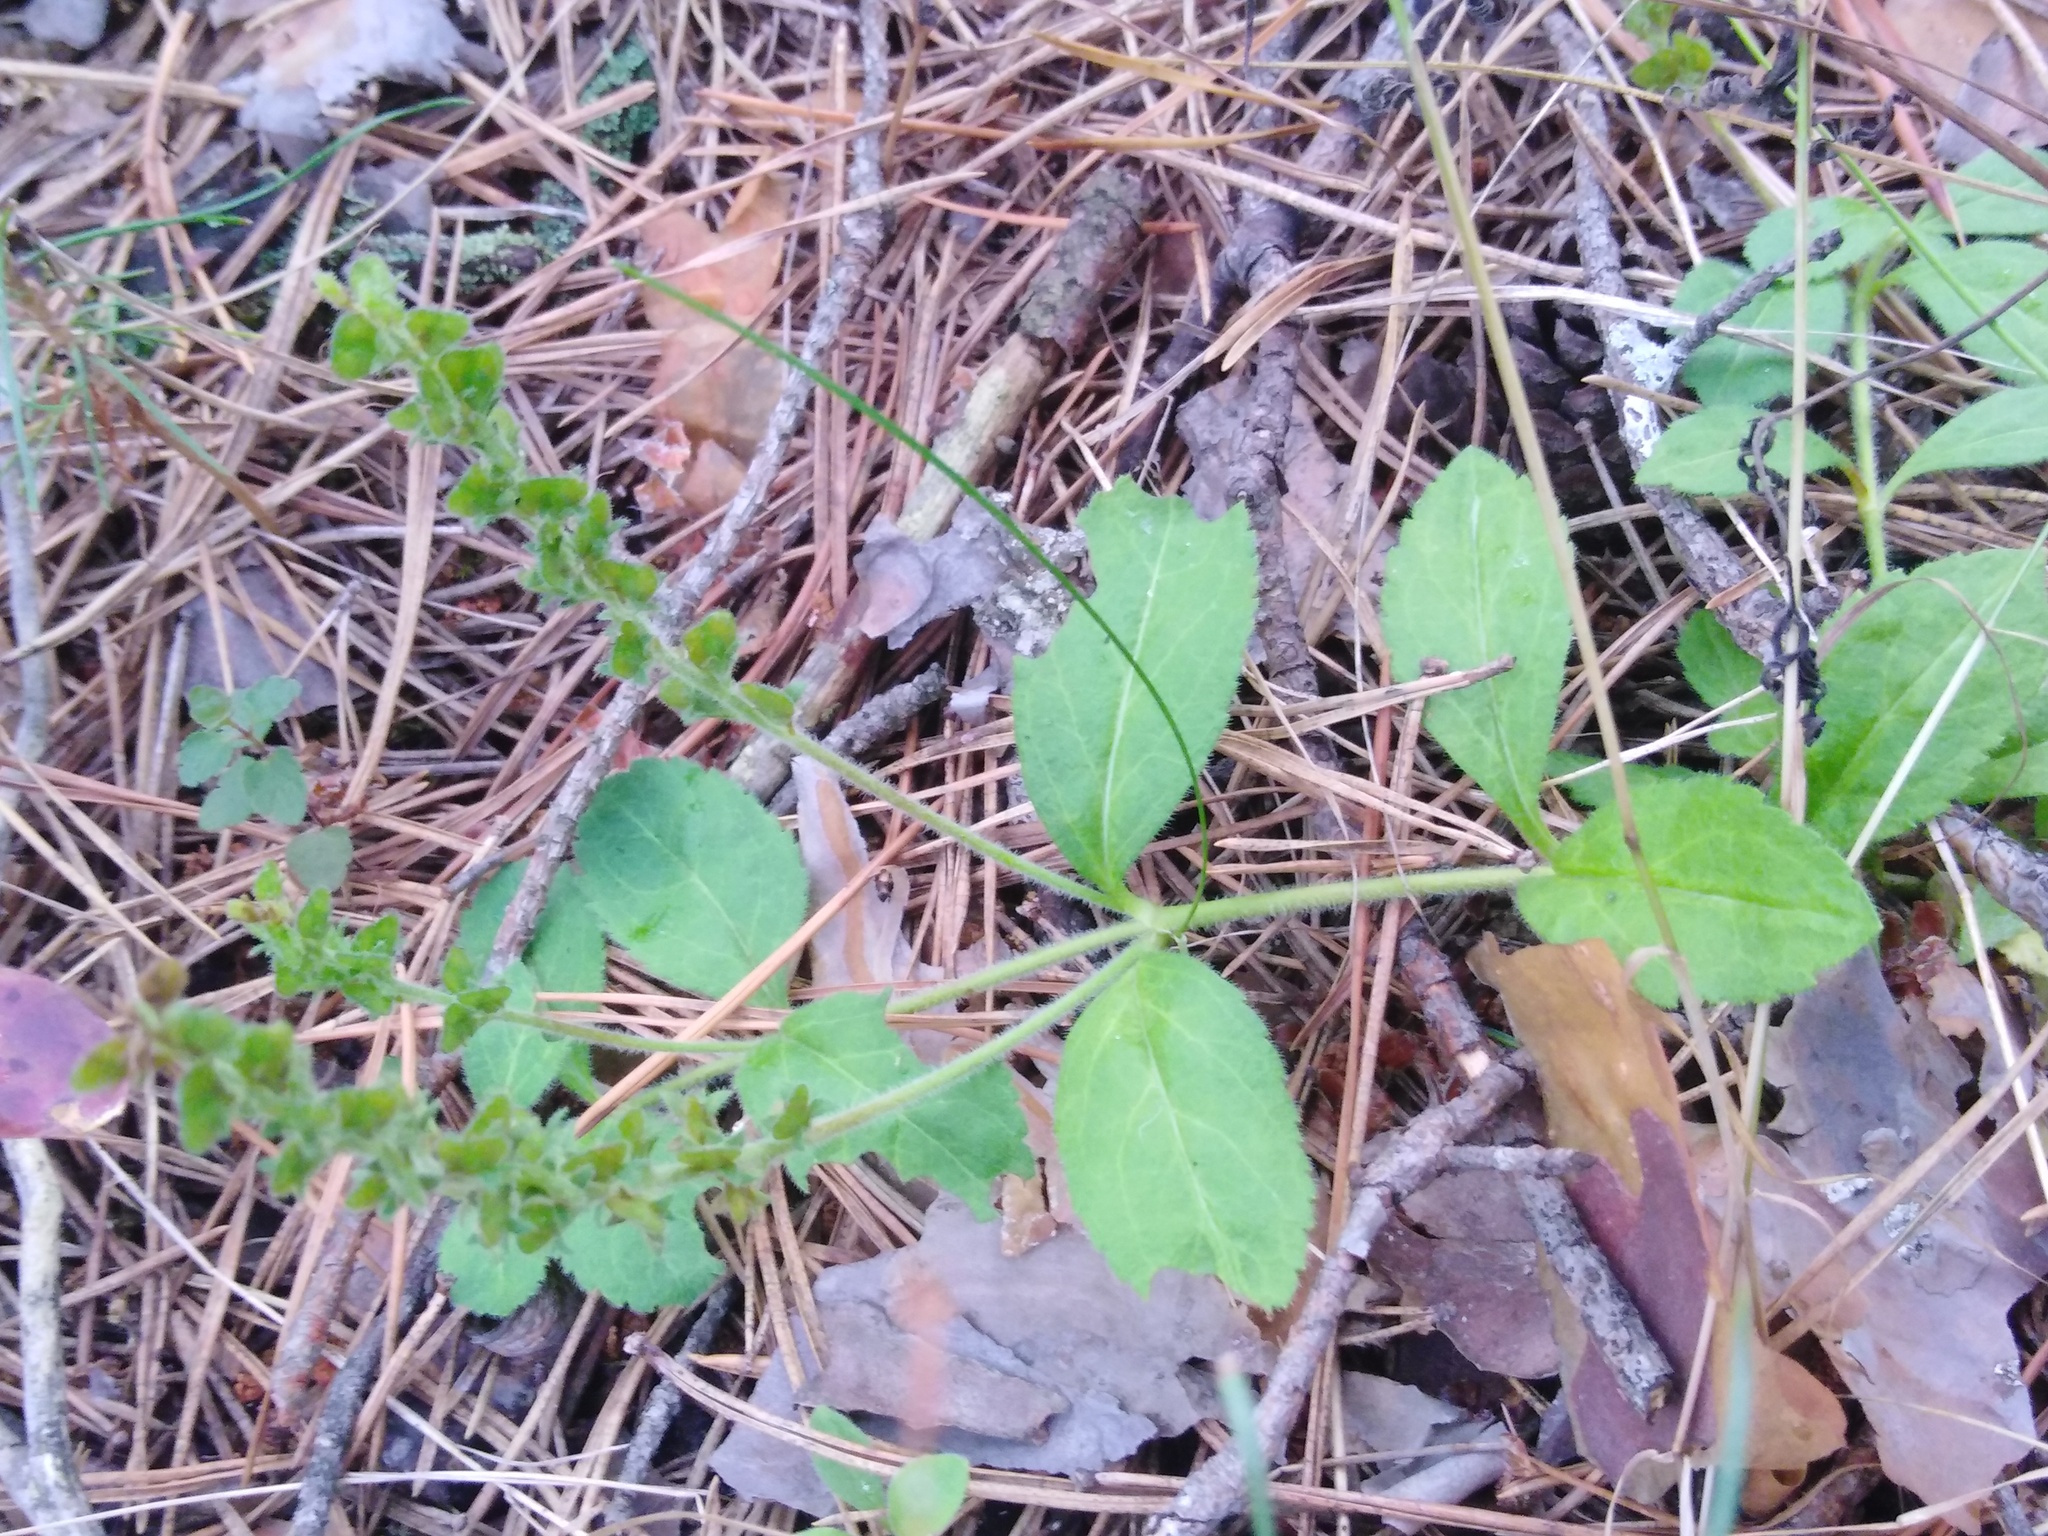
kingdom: Plantae
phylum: Tracheophyta
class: Magnoliopsida
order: Lamiales
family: Plantaginaceae
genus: Veronica
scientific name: Veronica officinalis
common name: Common speedwell
